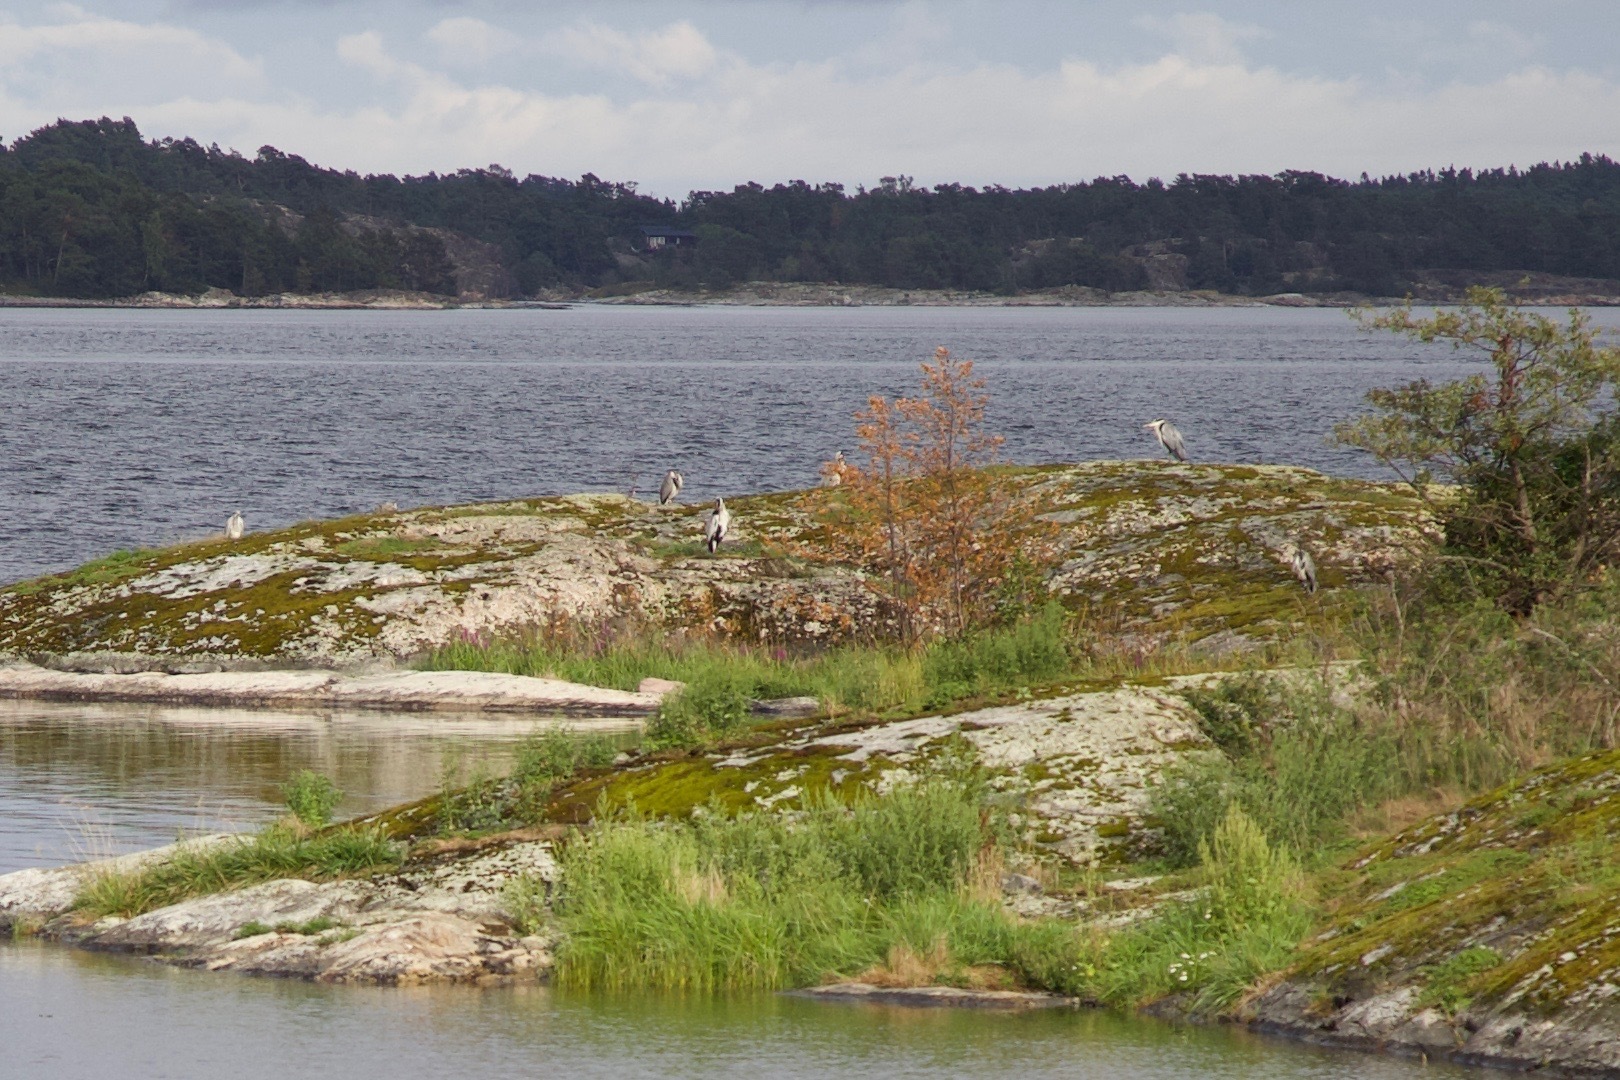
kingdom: Animalia
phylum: Chordata
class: Aves
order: Pelecaniformes
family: Ardeidae
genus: Ardea
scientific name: Ardea cinerea
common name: Grey heron
